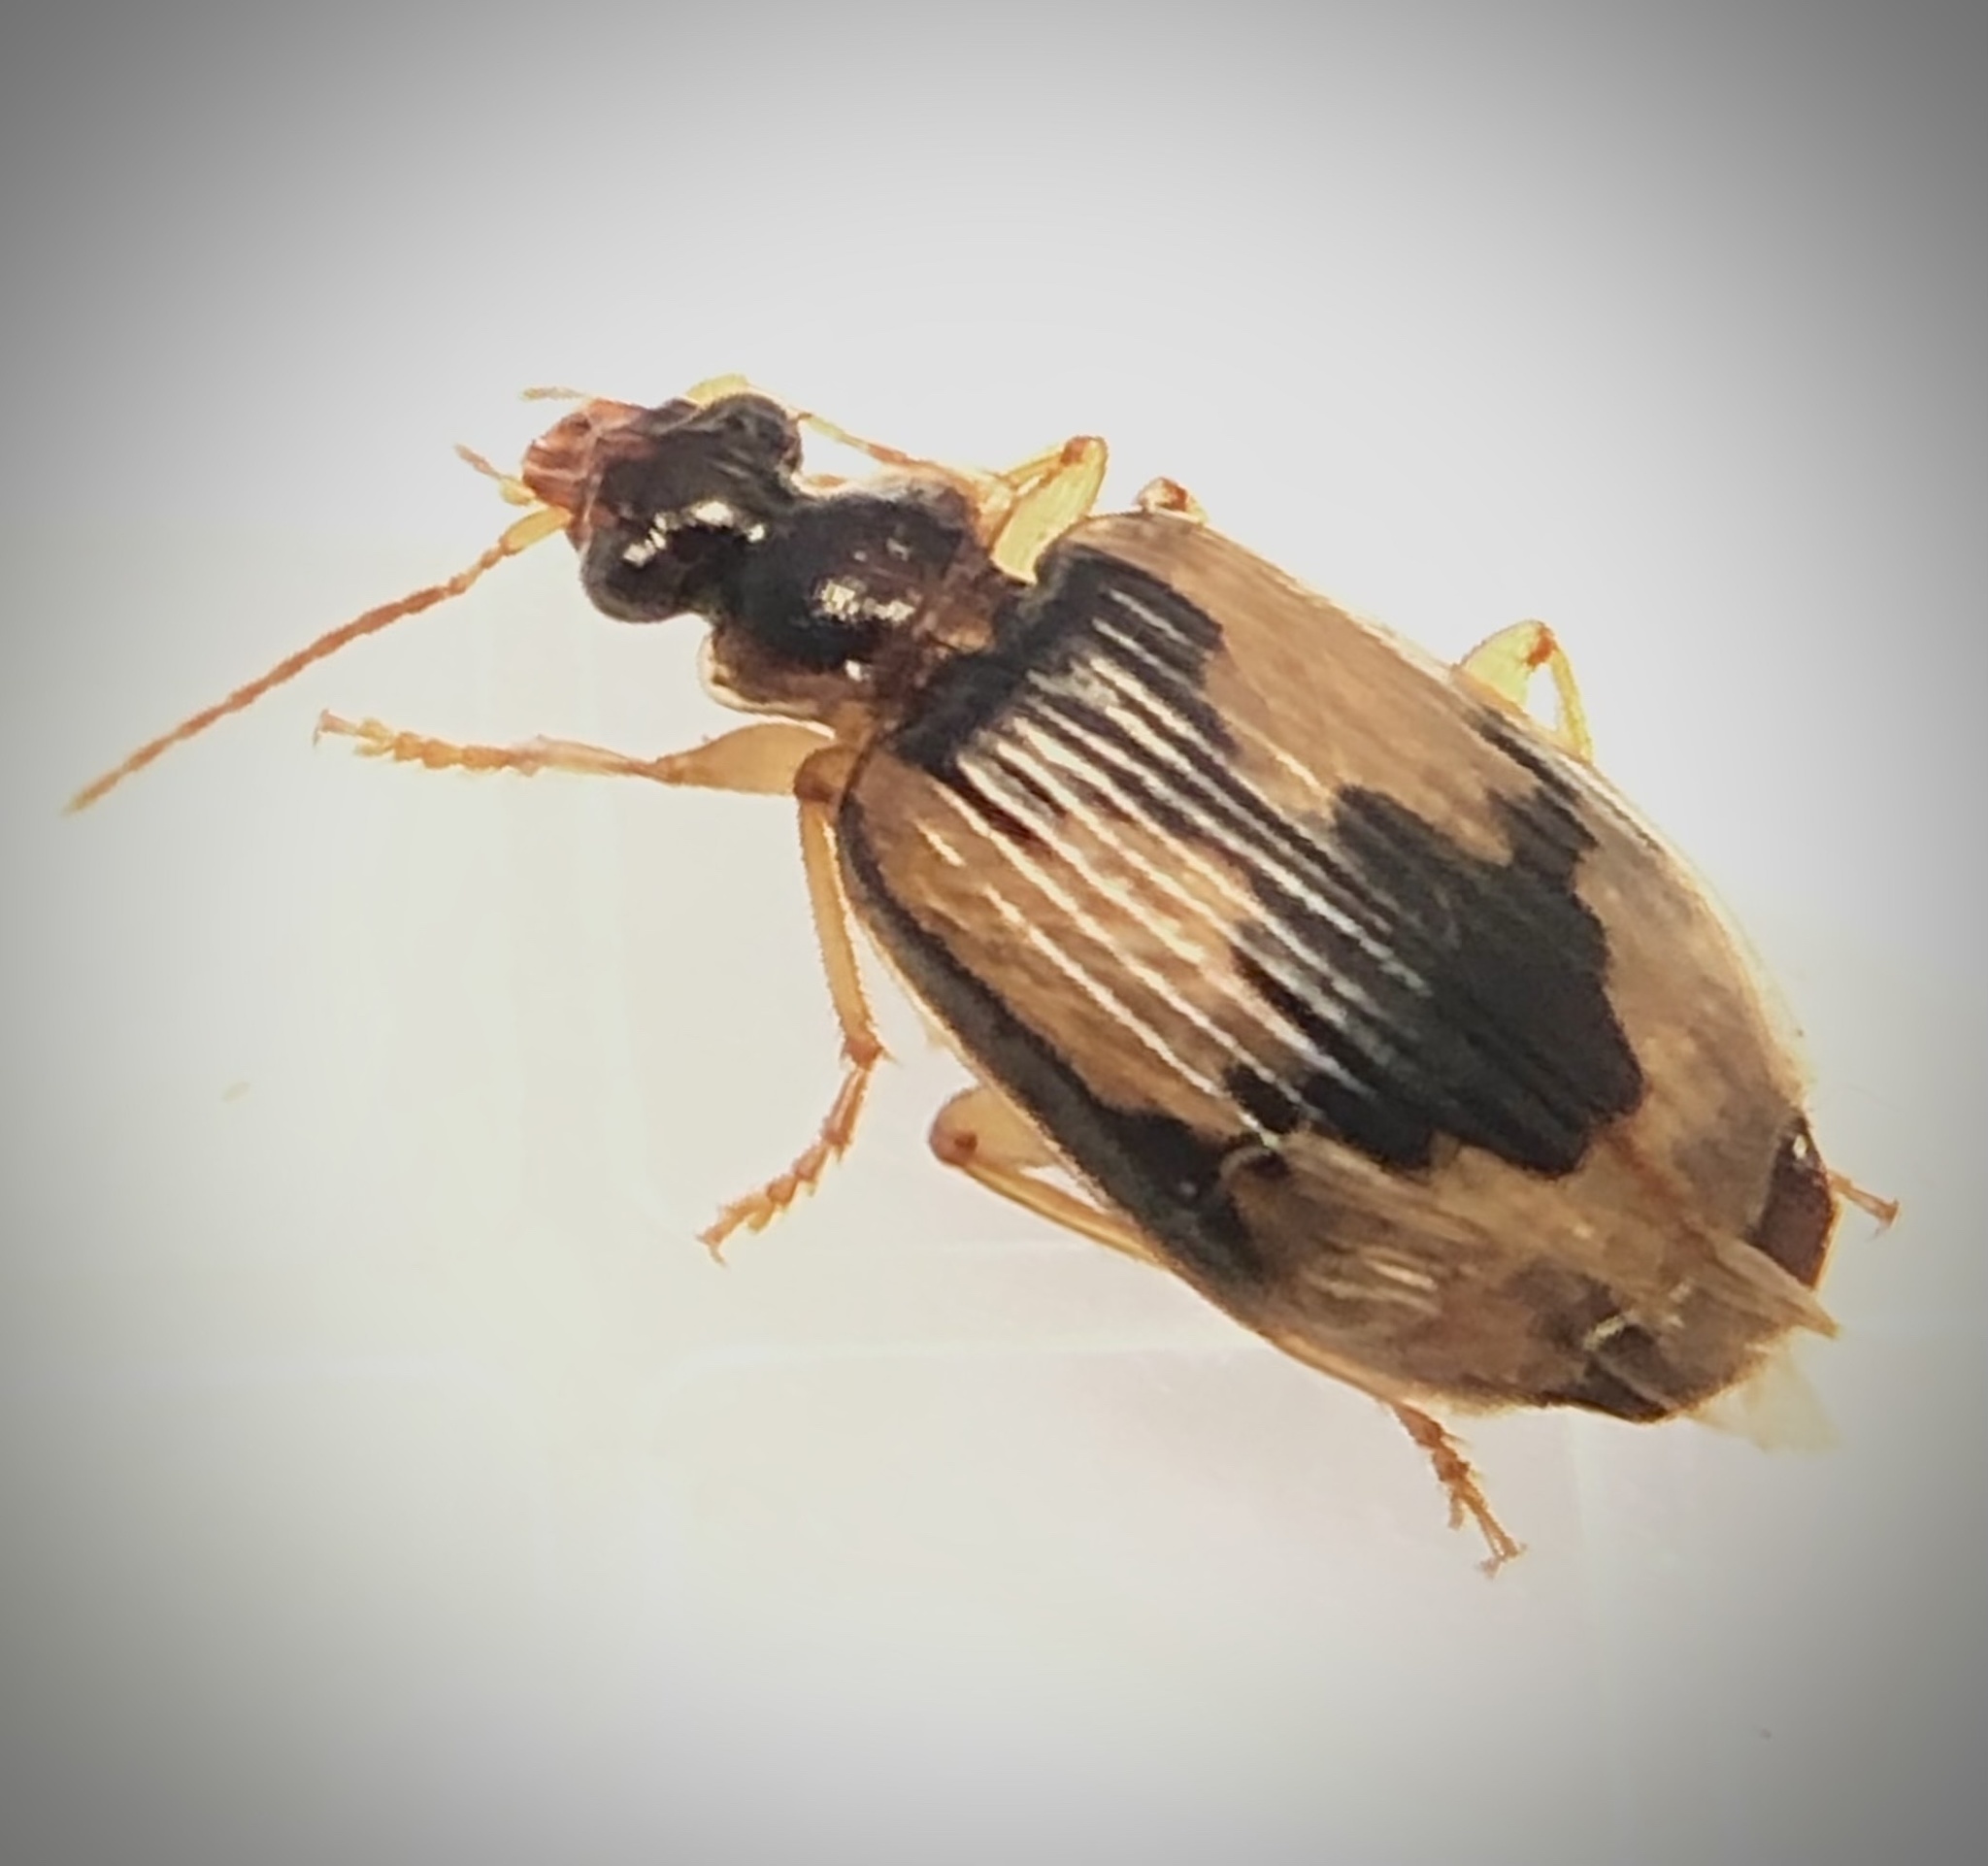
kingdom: Animalia
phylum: Arthropoda
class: Insecta
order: Coleoptera
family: Carabidae
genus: Lebia
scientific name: Lebia fuscata
